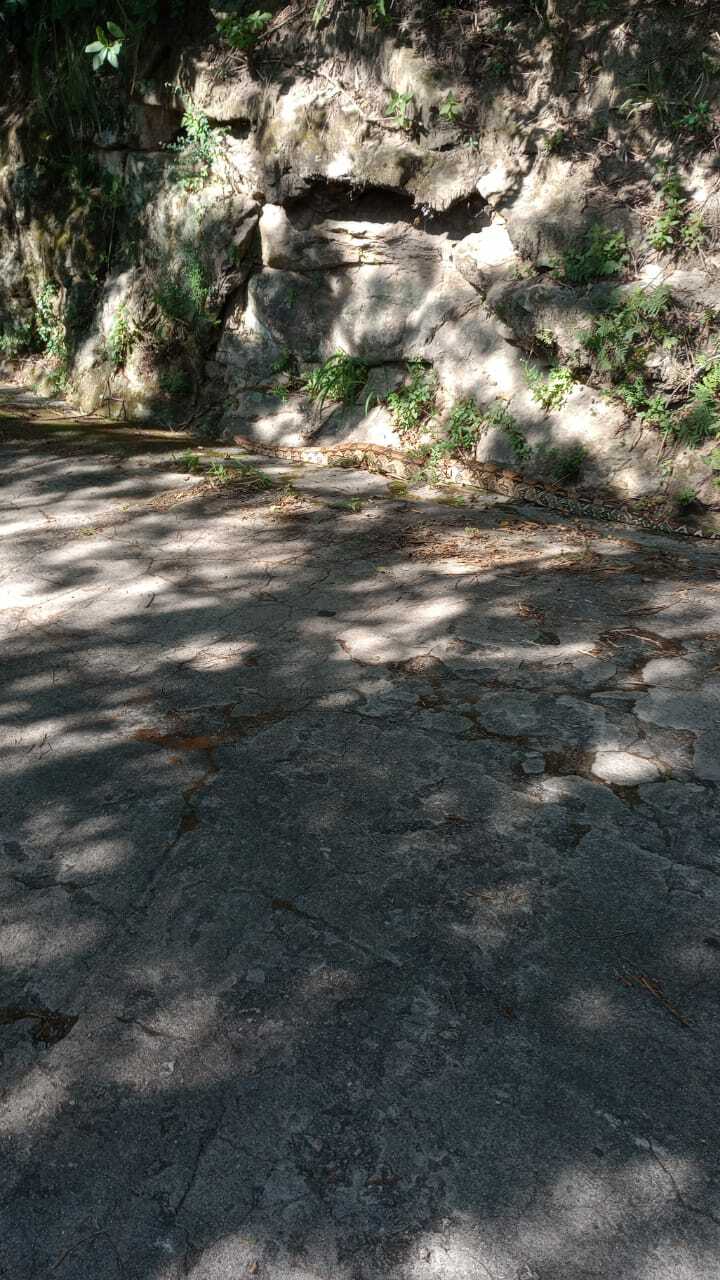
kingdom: Animalia
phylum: Chordata
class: Squamata
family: Boidae
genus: Boa
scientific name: Boa constrictor
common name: Boa constrictor
